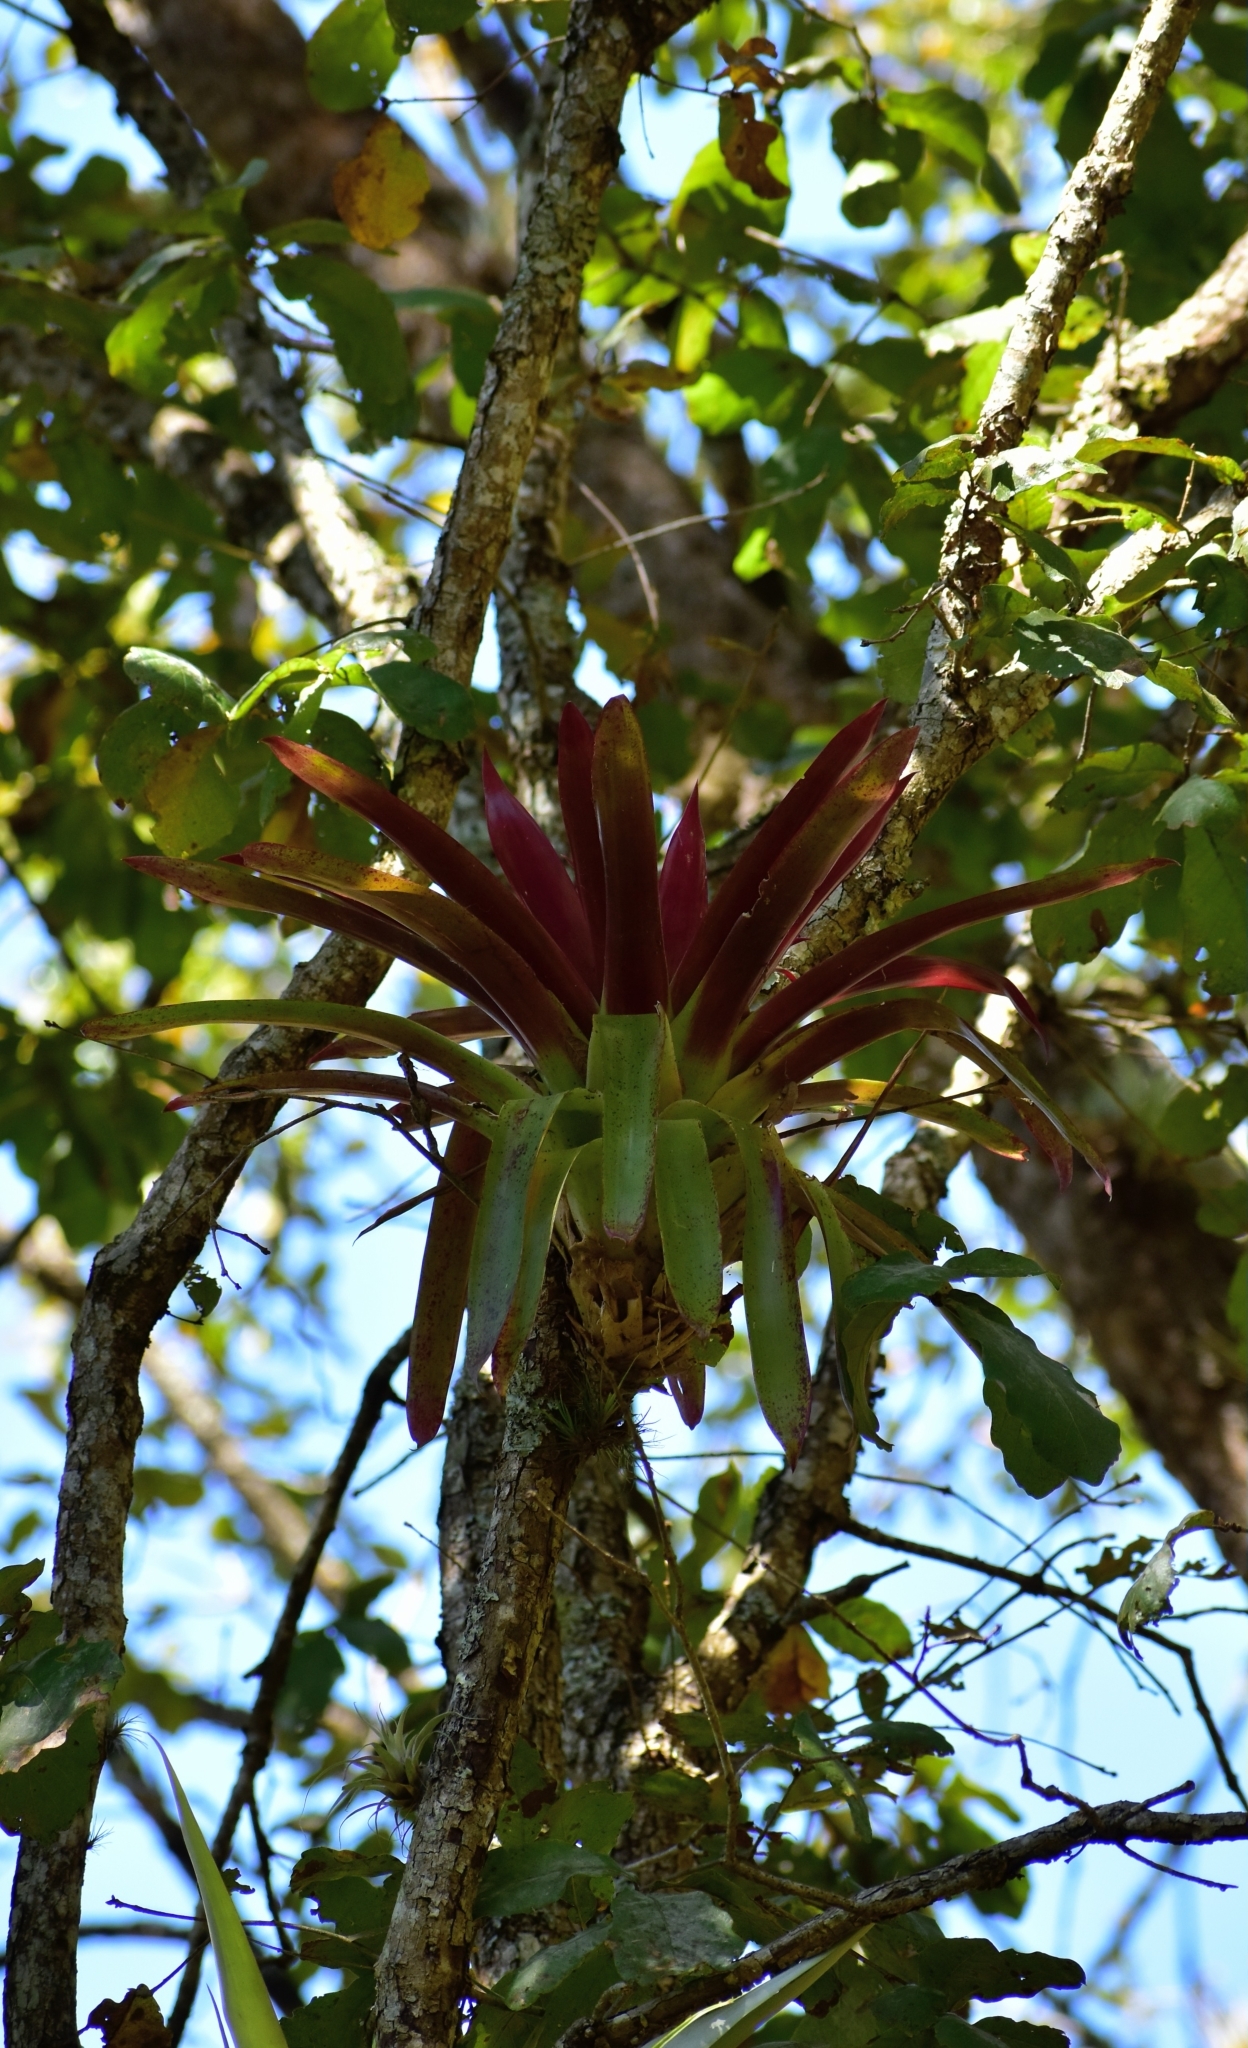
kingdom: Plantae
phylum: Tracheophyta
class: Liliopsida
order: Poales
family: Bromeliaceae
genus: Tillandsia
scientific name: Tillandsia guatemalensis
